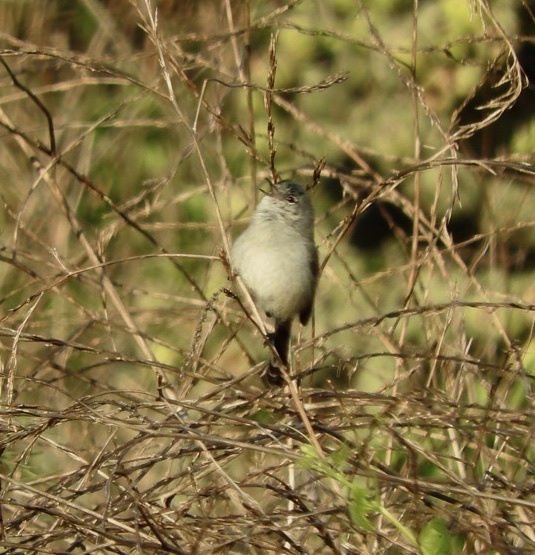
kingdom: Animalia
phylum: Chordata
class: Aves
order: Passeriformes
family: Polioptilidae
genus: Polioptila
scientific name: Polioptila californica
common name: California gnatcatcher
